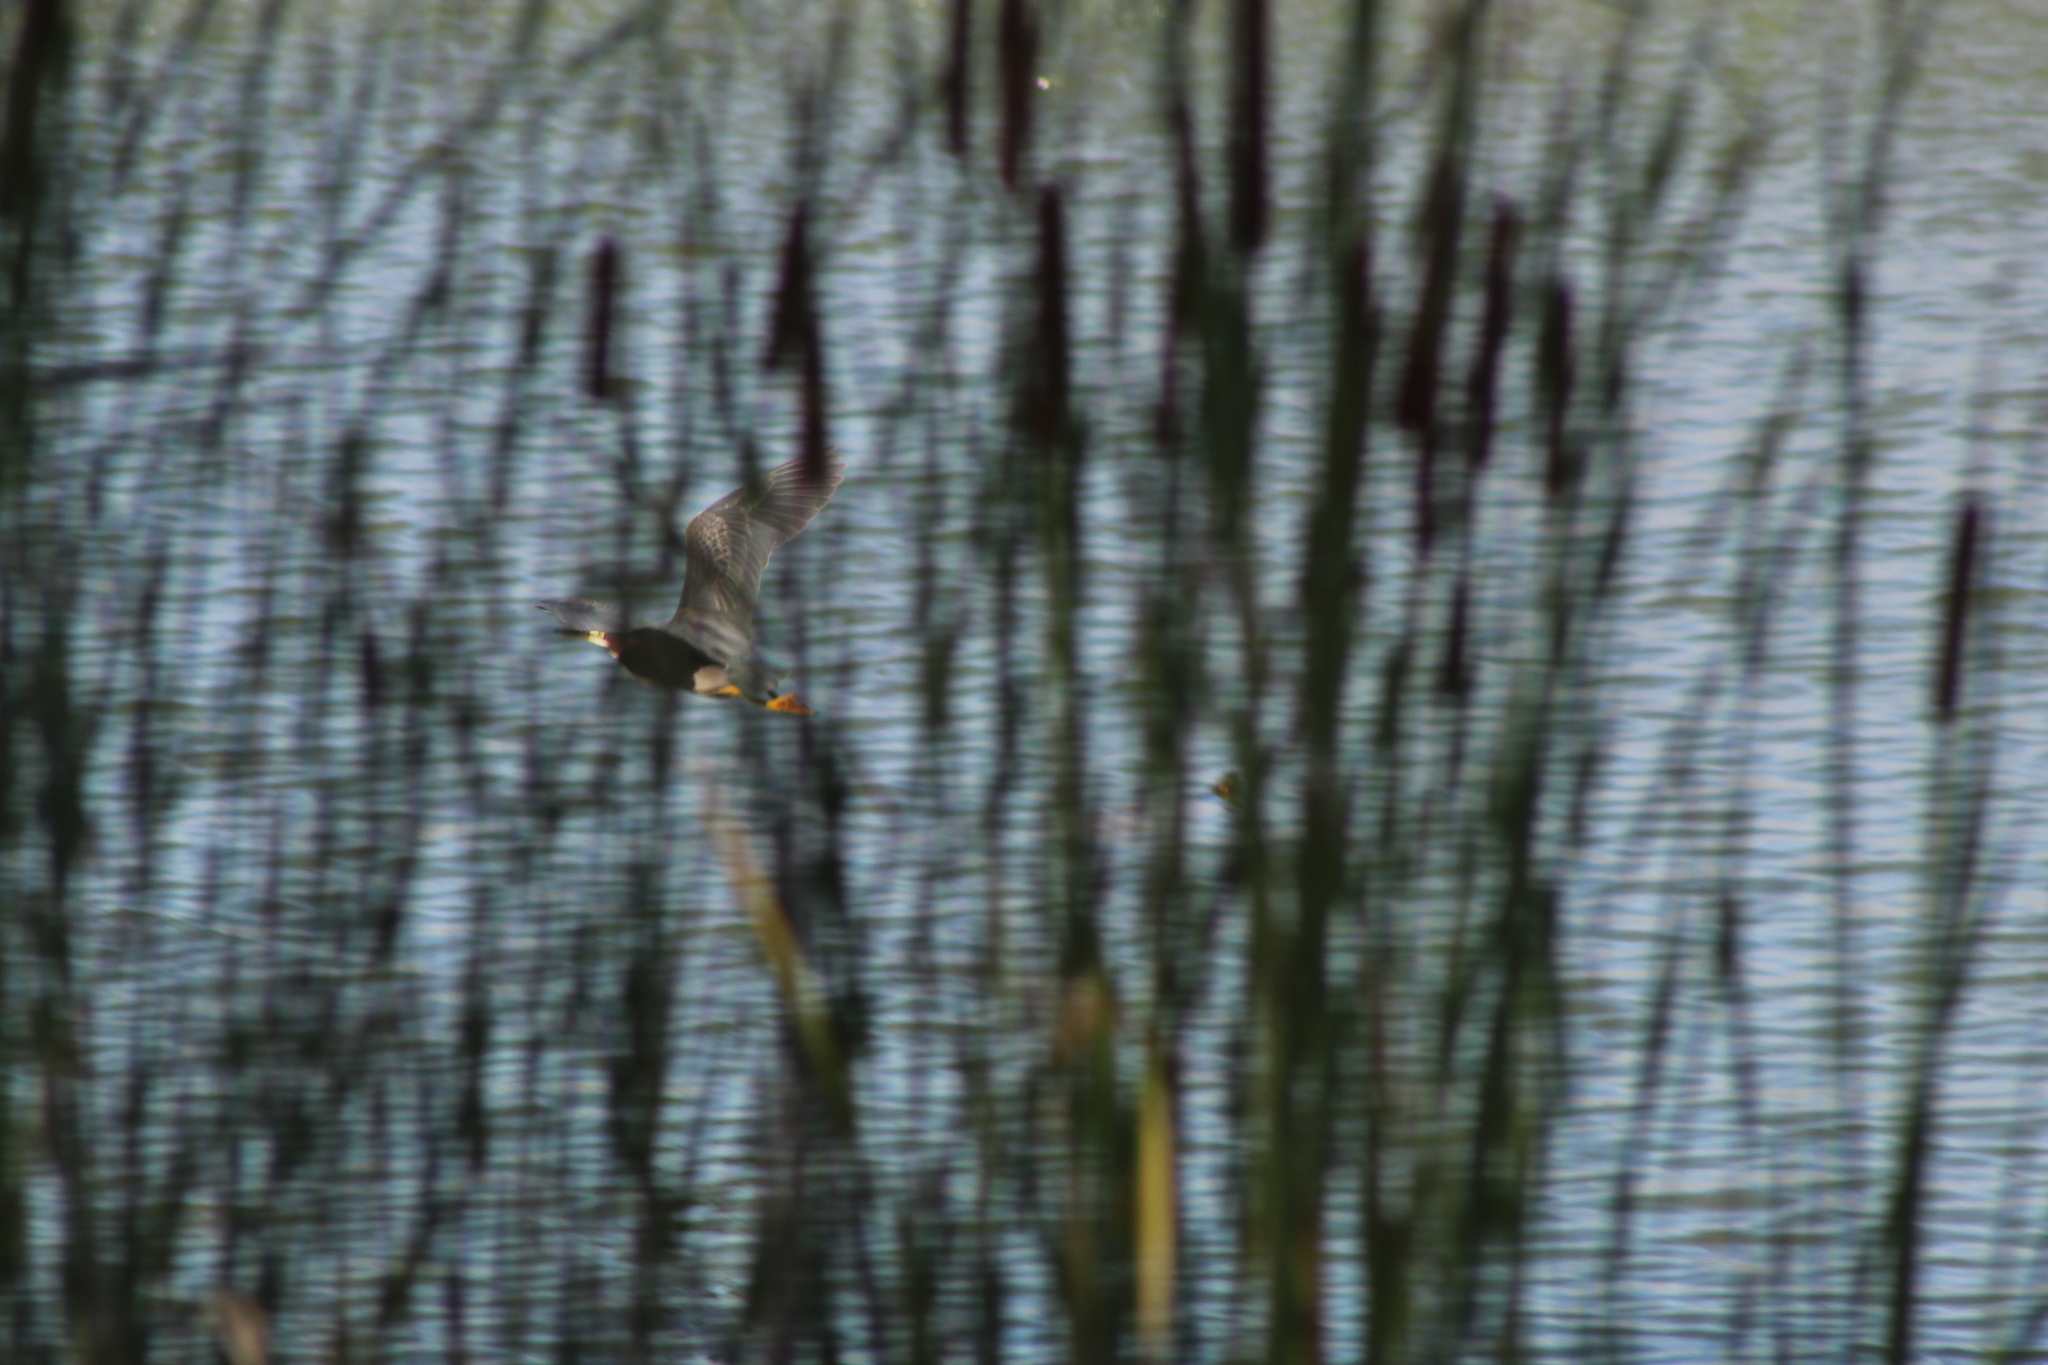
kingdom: Animalia
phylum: Chordata
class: Aves
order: Pelecaniformes
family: Ardeidae
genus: Butorides
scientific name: Butorides virescens
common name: Green heron
